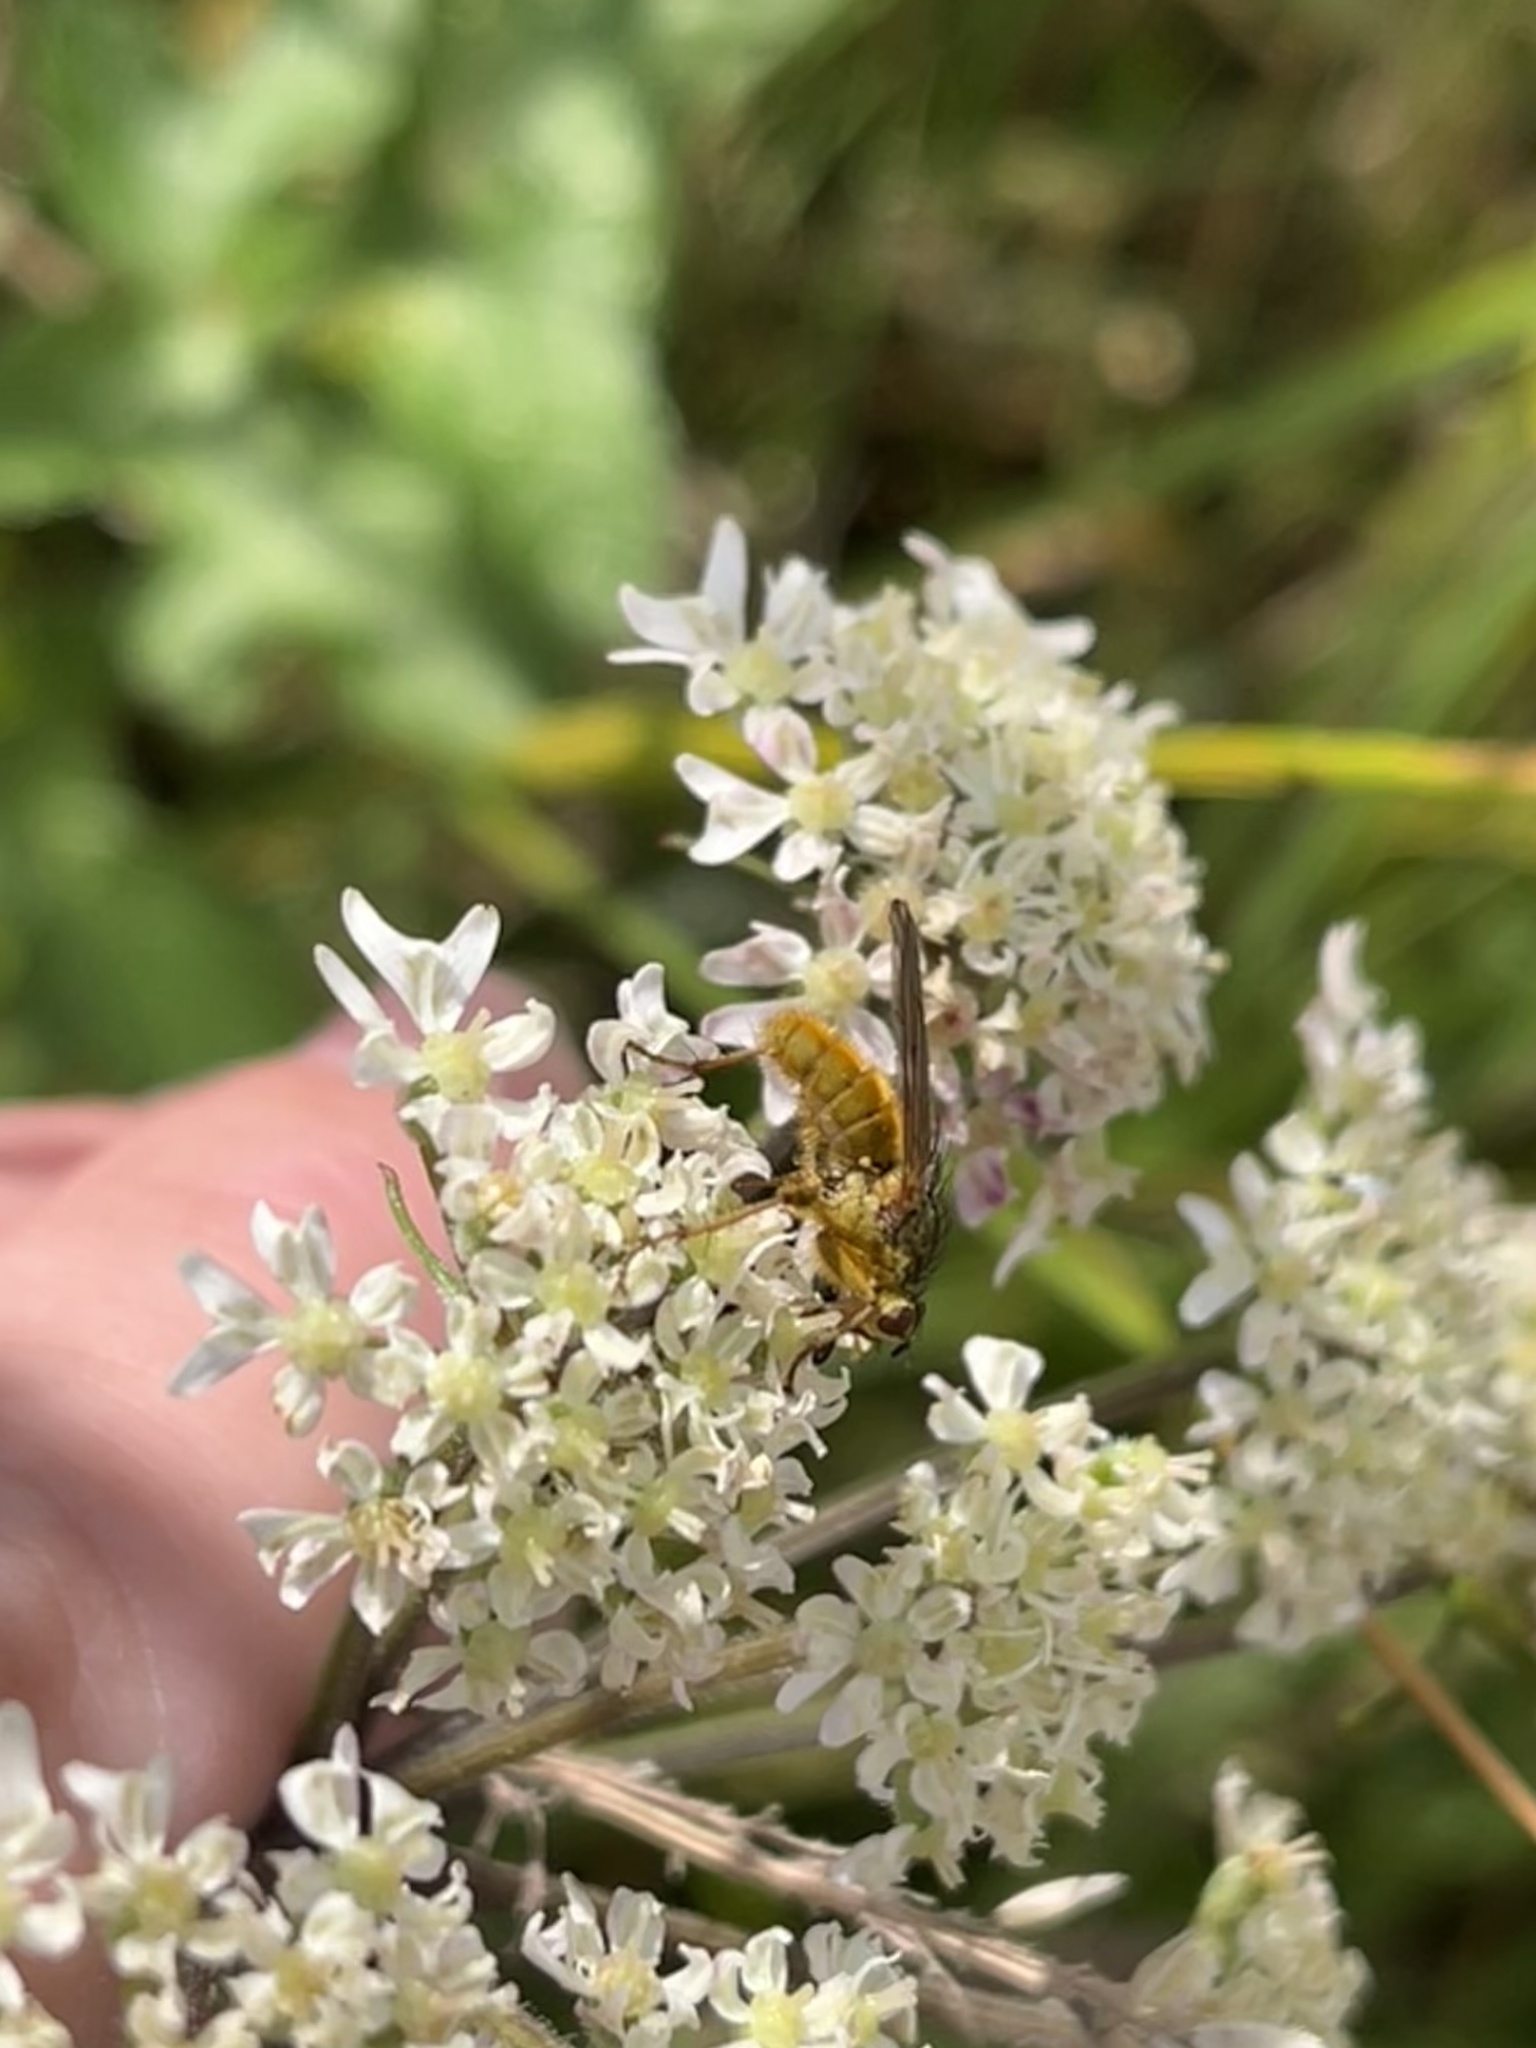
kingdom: Animalia
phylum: Arthropoda
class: Insecta
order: Diptera
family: Scathophagidae
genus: Scathophaga
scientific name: Scathophaga stercoraria
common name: Yellow dung fly
